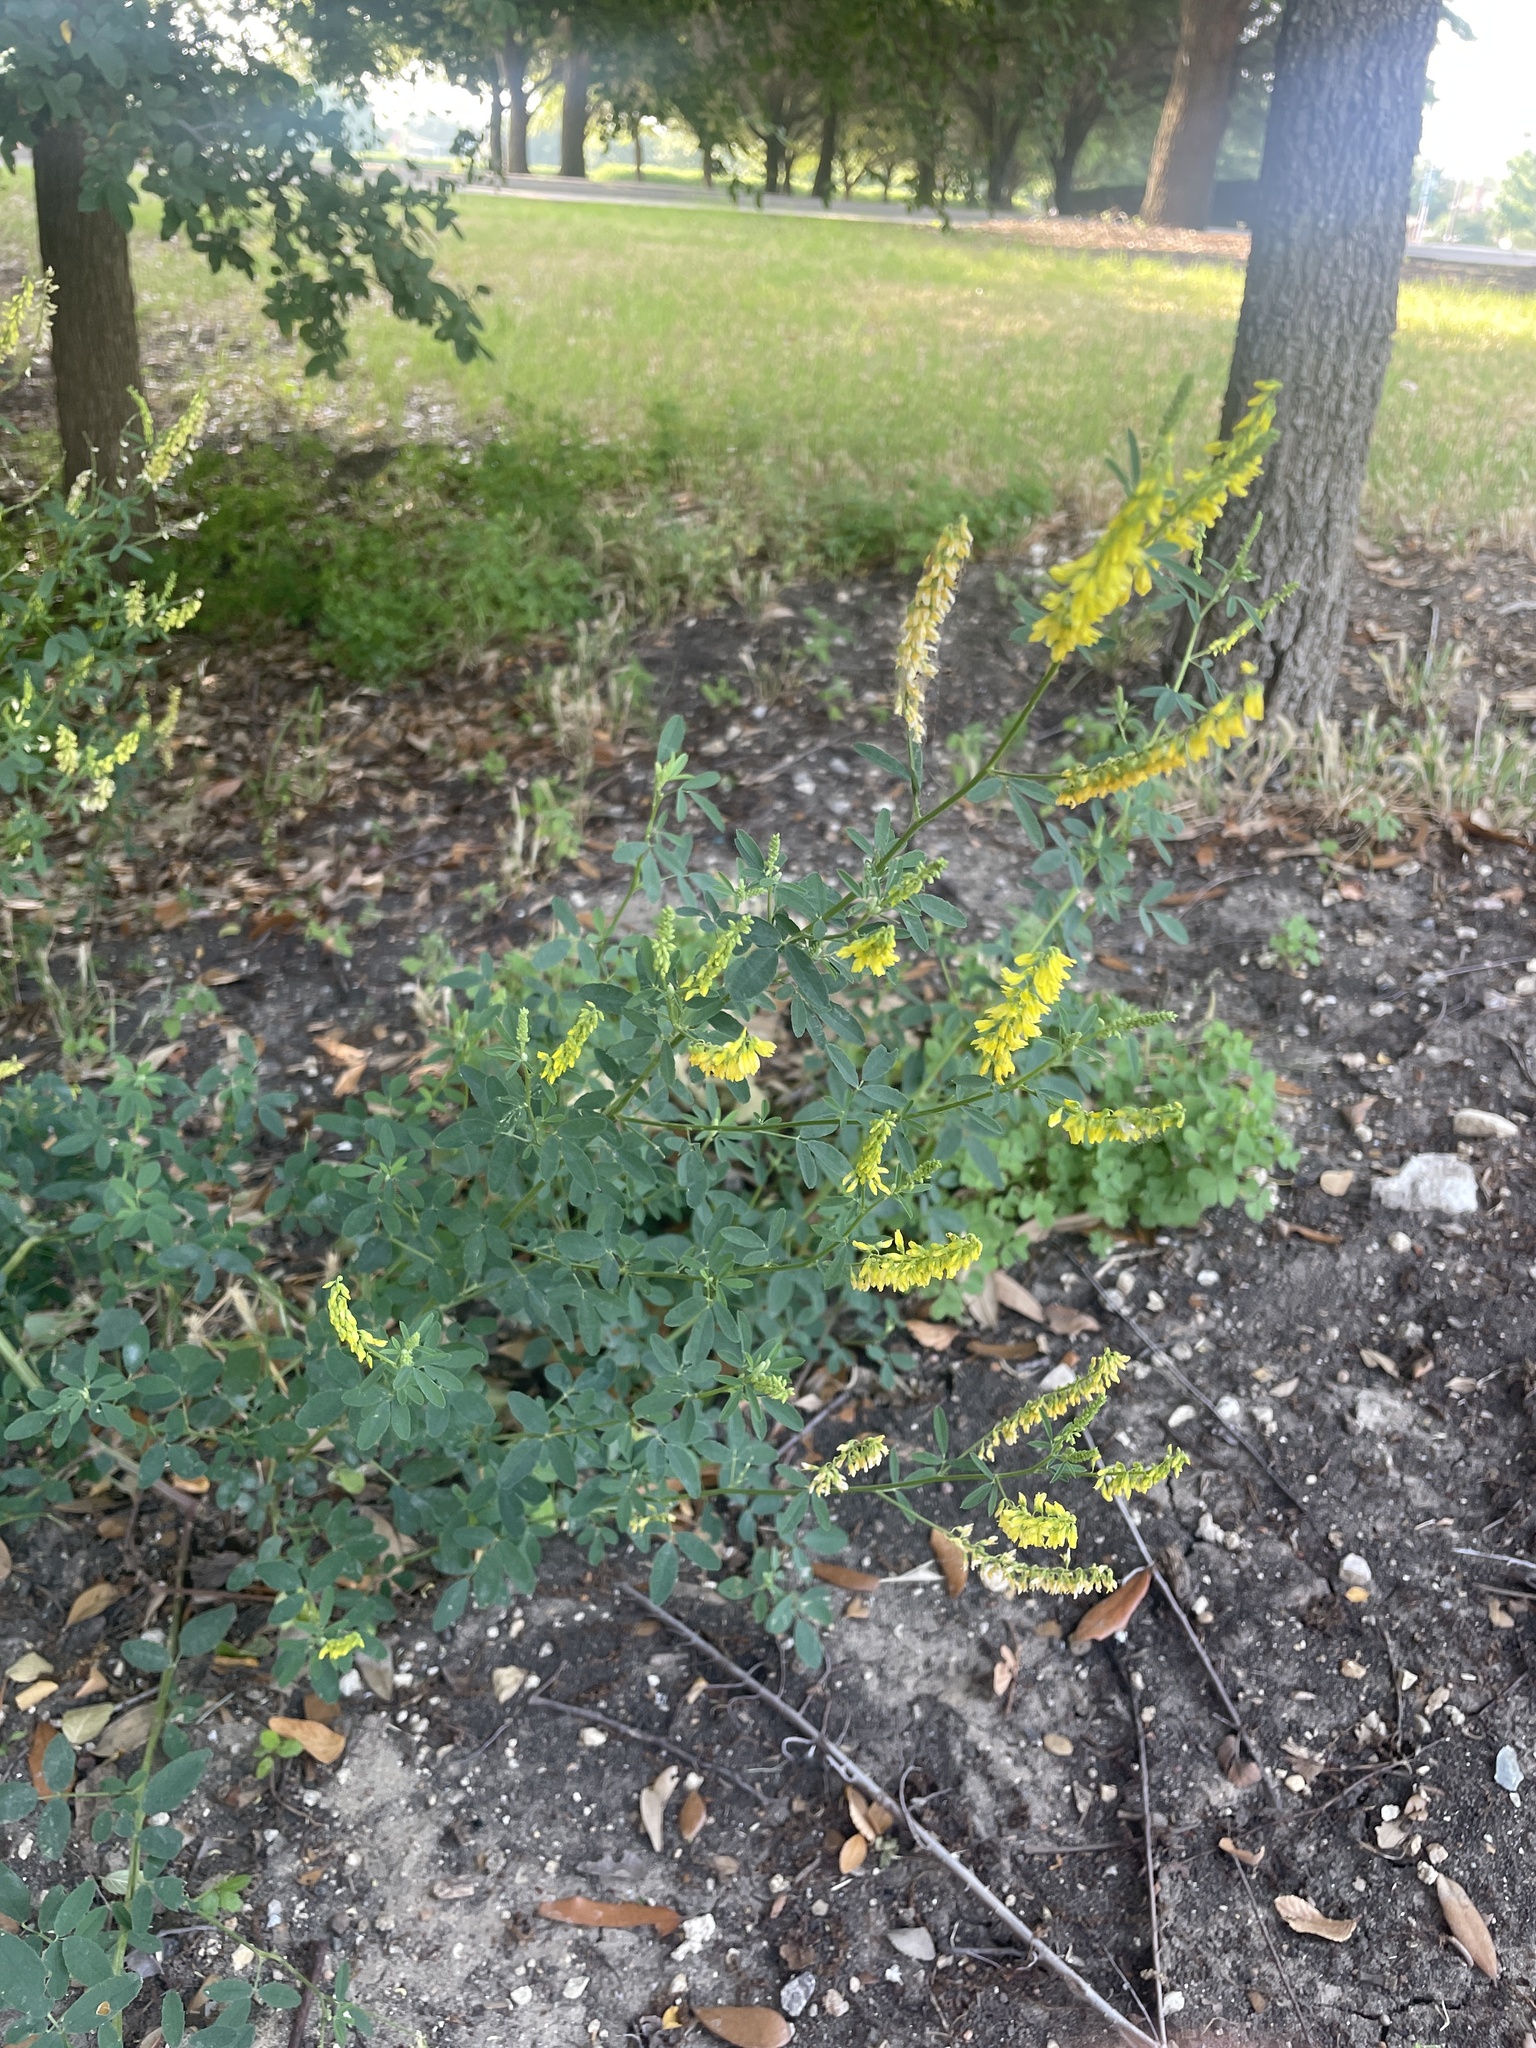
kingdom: Plantae
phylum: Tracheophyta
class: Magnoliopsida
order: Fabales
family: Fabaceae
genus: Melilotus
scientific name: Melilotus officinalis
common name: Sweetclover
